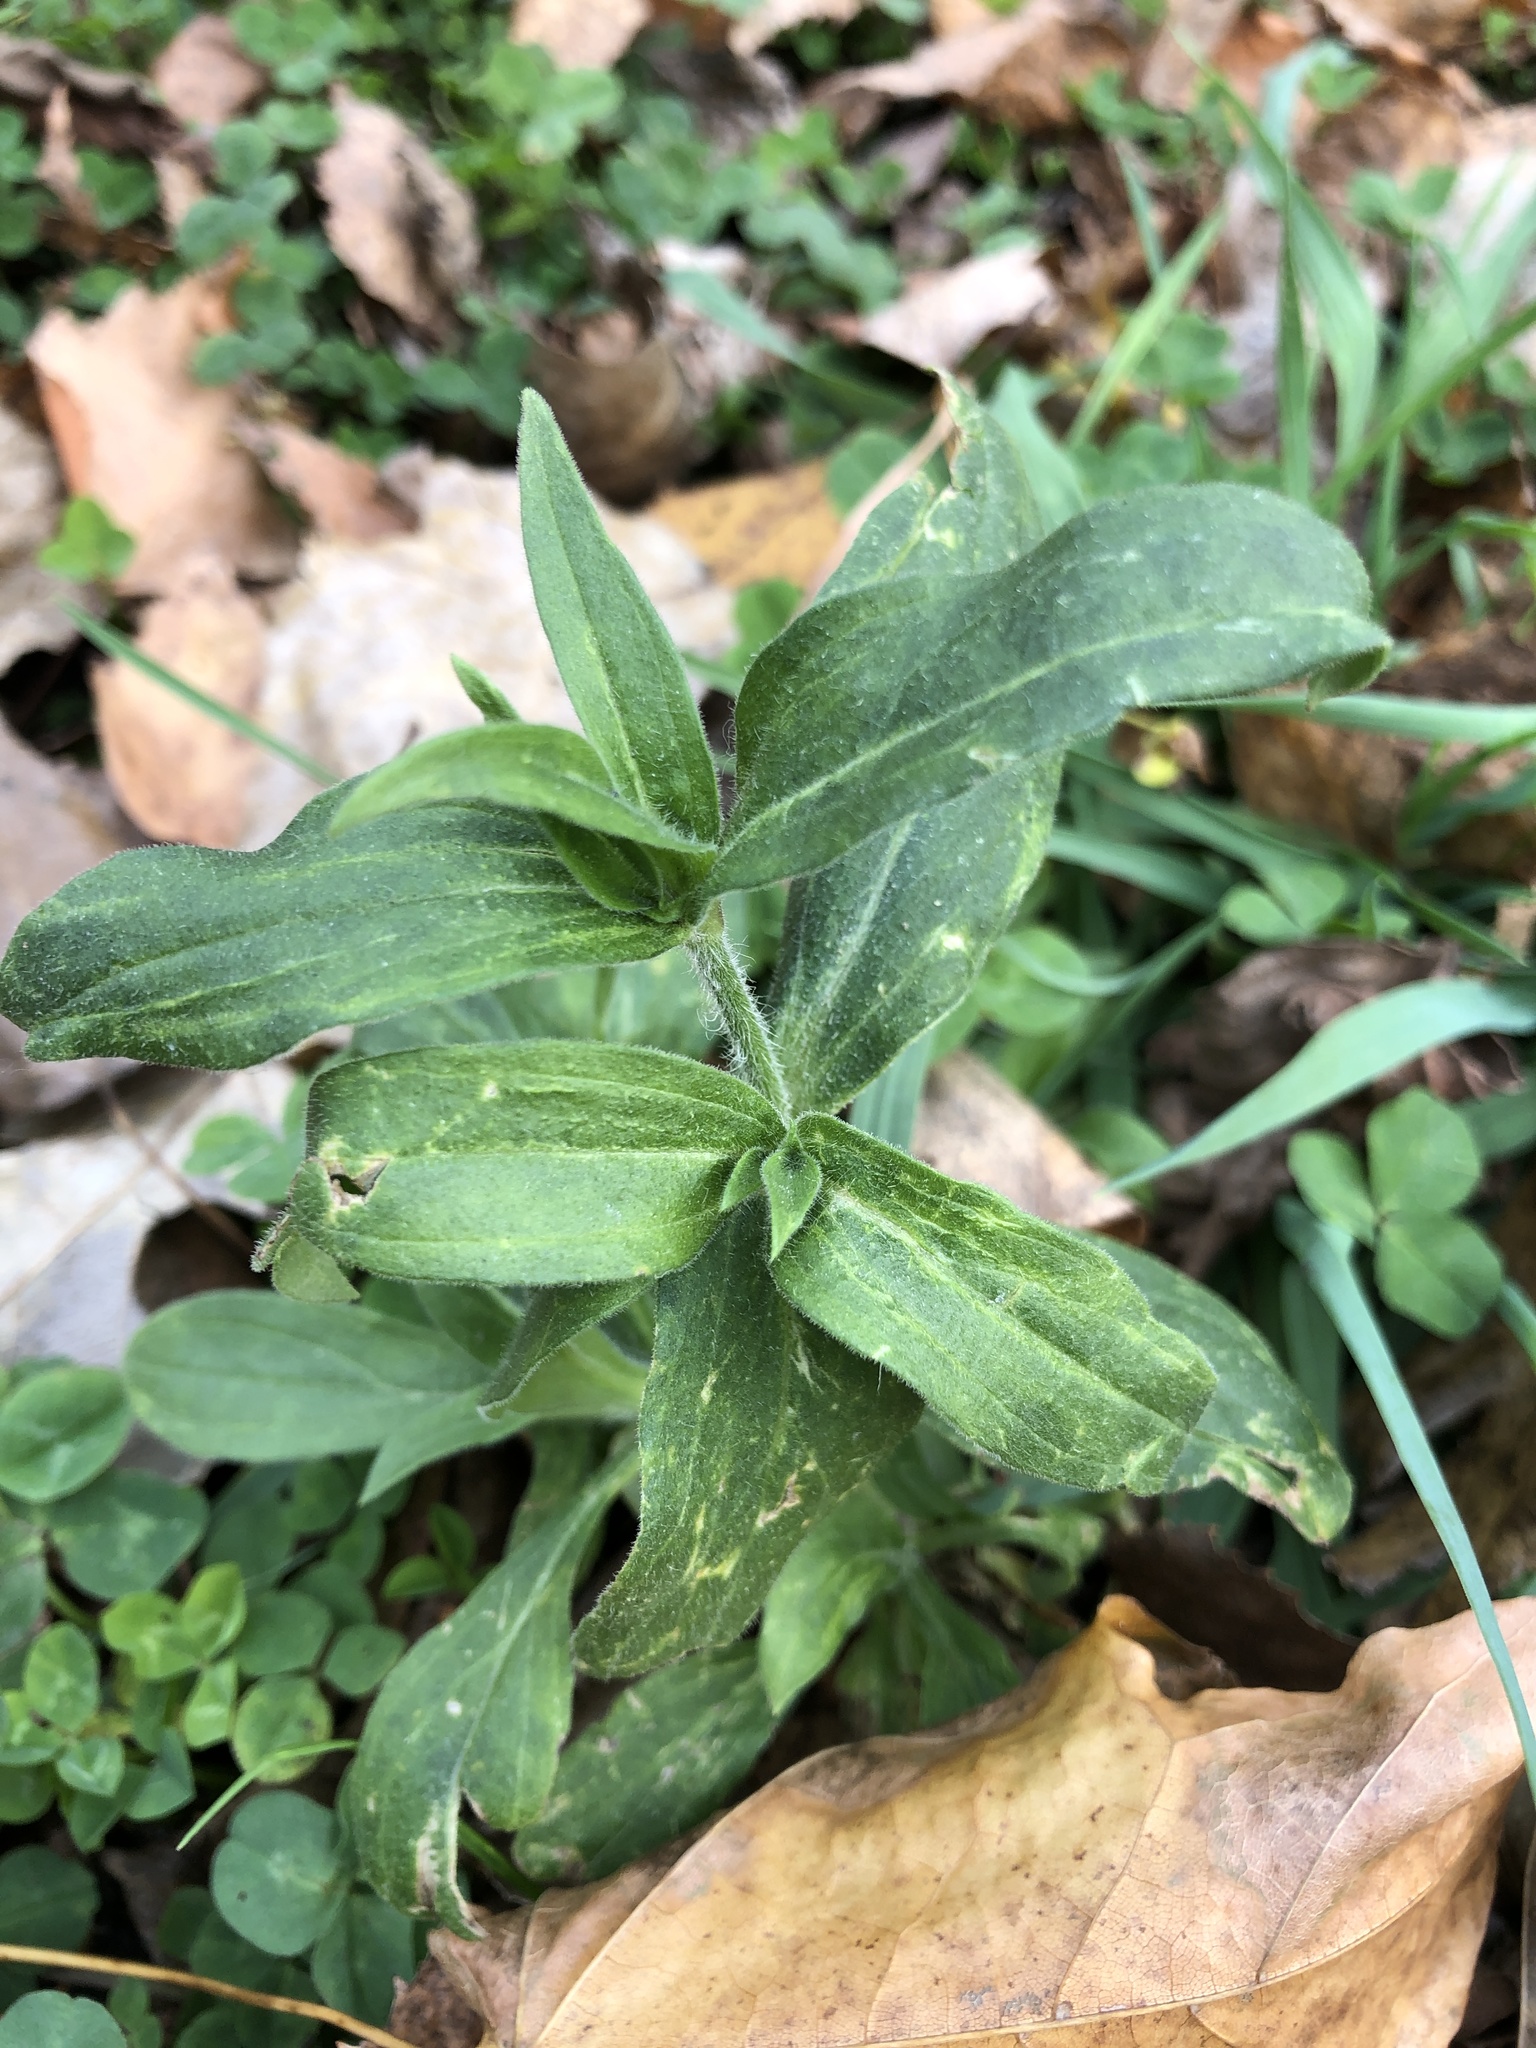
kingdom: Plantae
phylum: Tracheophyta
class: Magnoliopsida
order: Caryophyllales
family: Caryophyllaceae
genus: Silene
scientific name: Silene latifolia
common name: White campion
